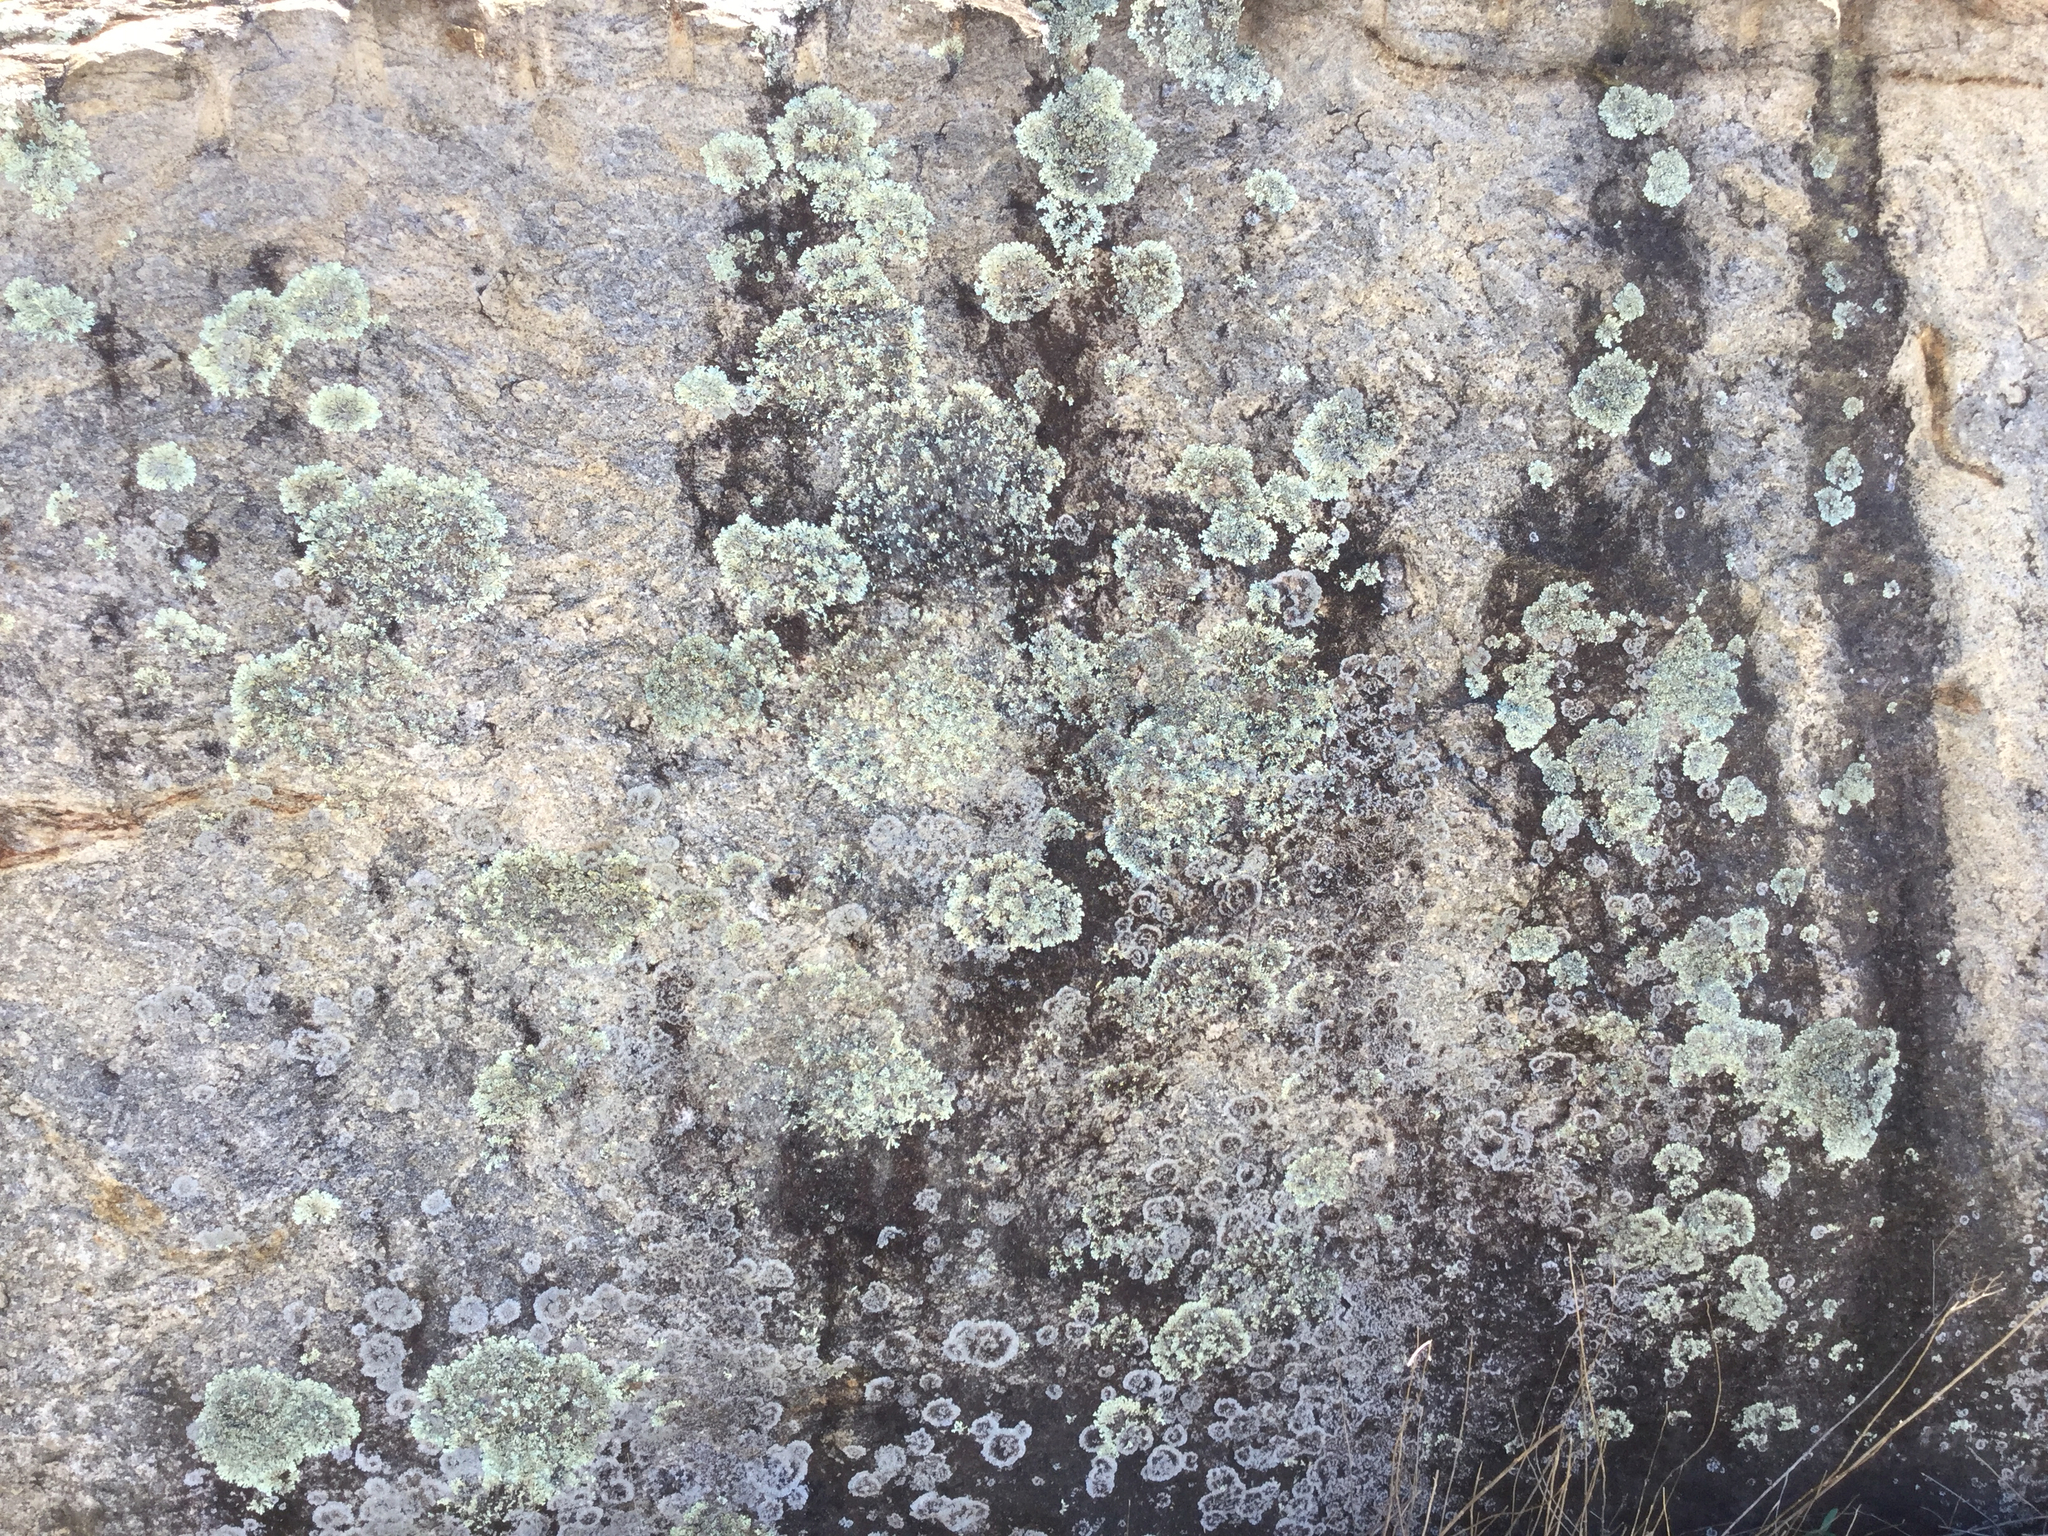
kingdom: Fungi
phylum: Ascomycota
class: Lecanoromycetes
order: Lecanorales
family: Parmeliaceae
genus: Xanthoparmelia
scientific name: Xanthoparmelia conspersa
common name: Peppered rock shield
